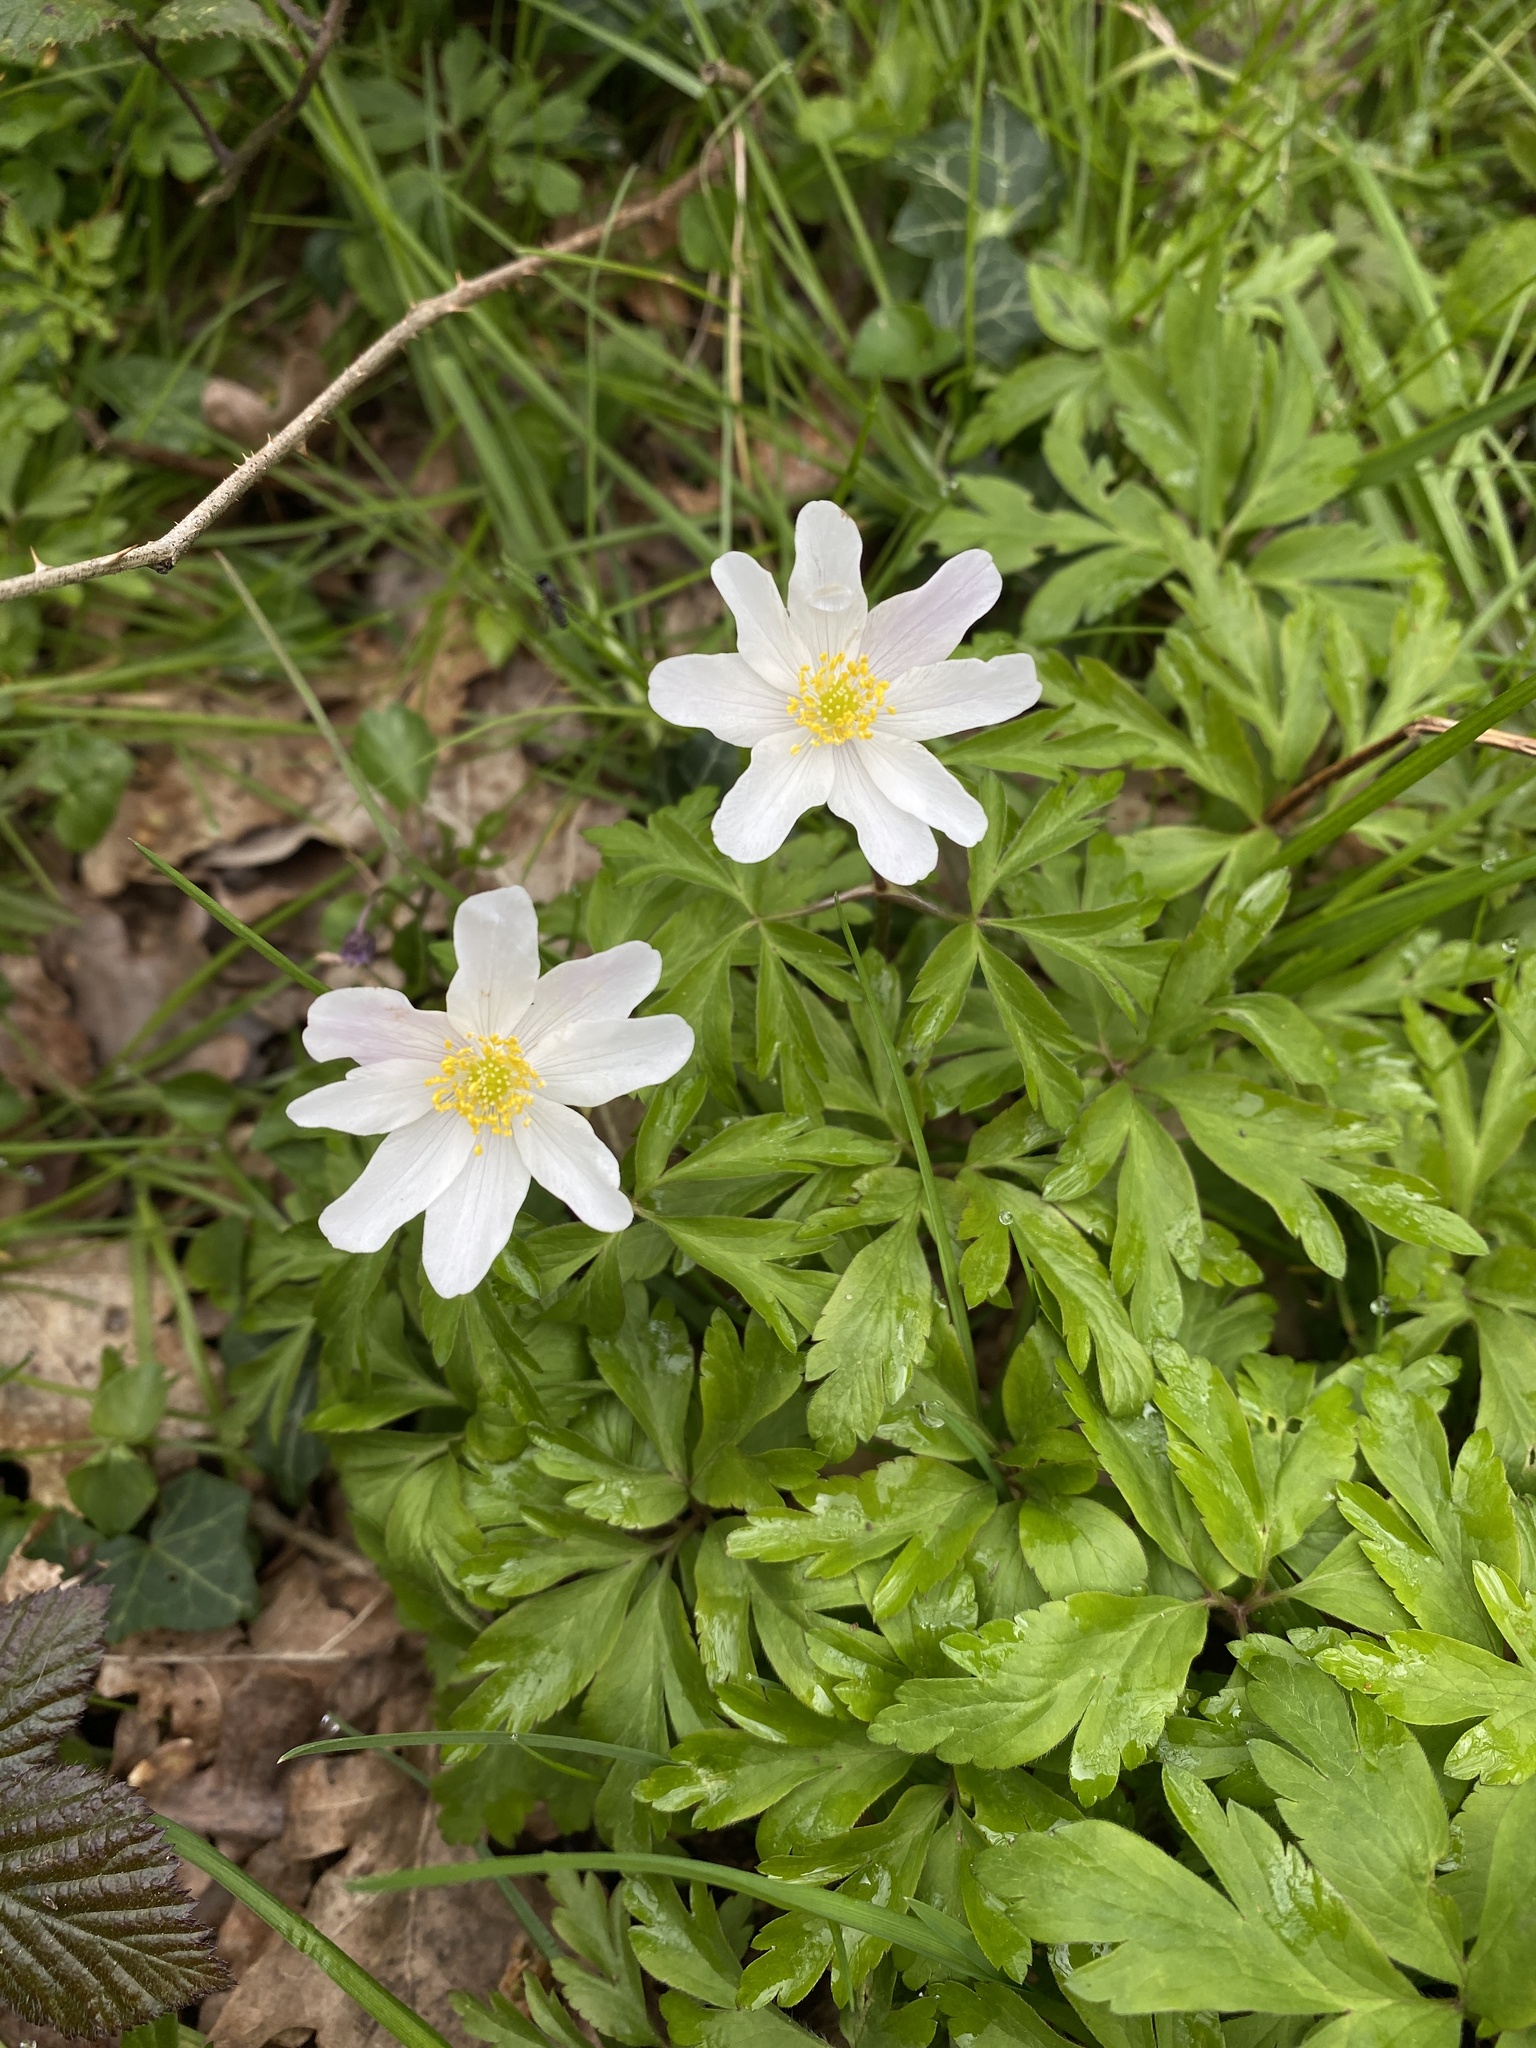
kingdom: Plantae
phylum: Tracheophyta
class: Magnoliopsida
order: Ranunculales
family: Ranunculaceae
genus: Anemone
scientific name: Anemone nemorosa
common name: Wood anemone
